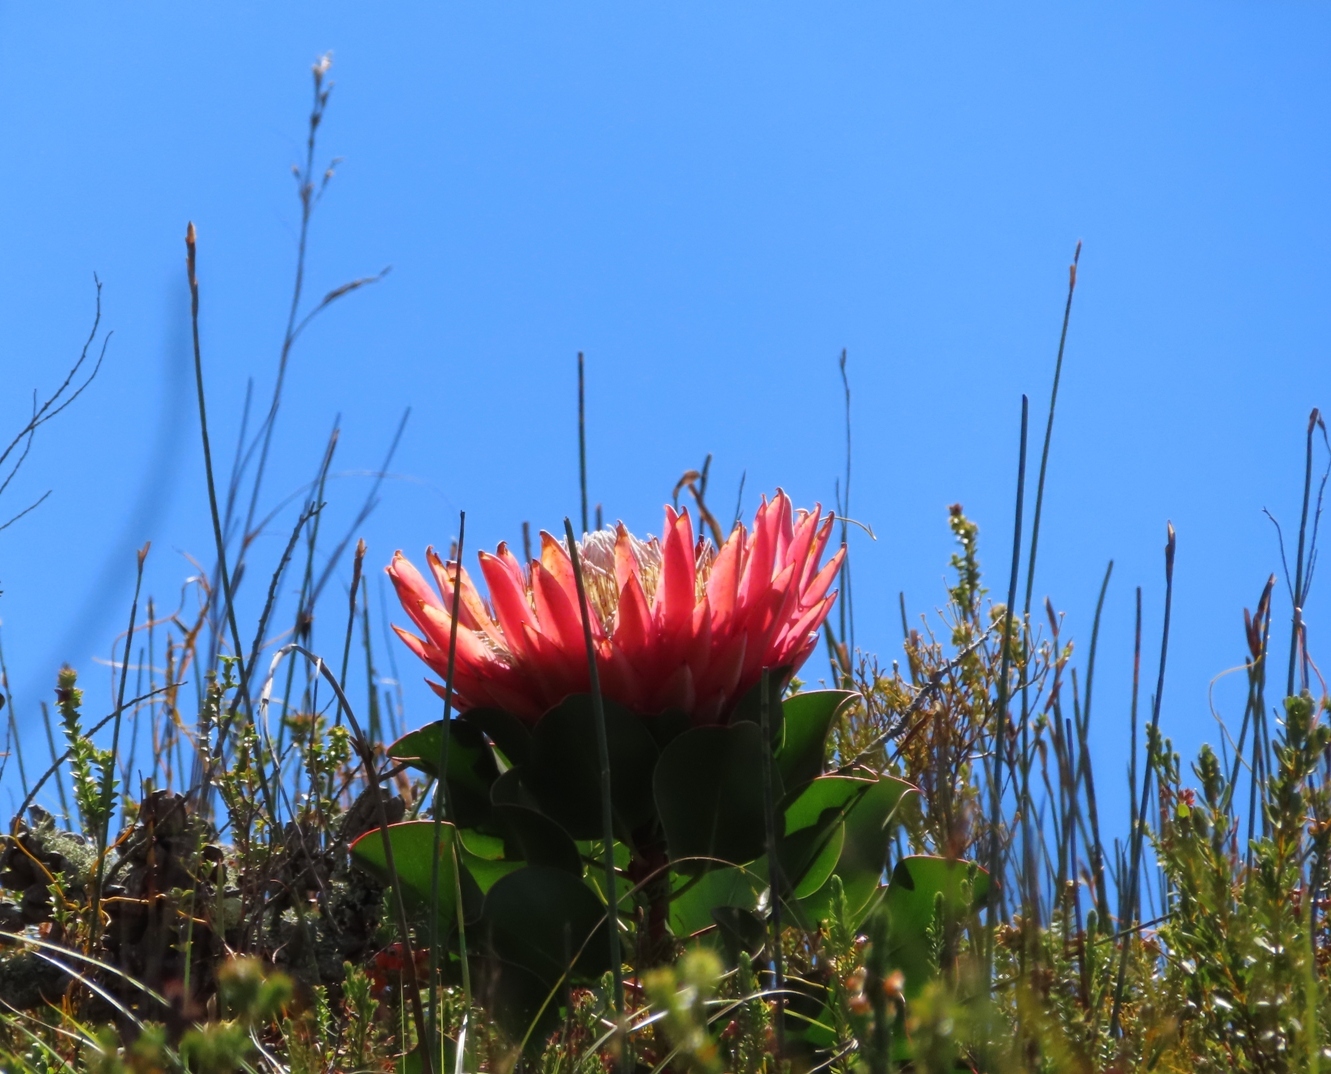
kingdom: Plantae
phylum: Tracheophyta
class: Magnoliopsida
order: Proteales
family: Proteaceae
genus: Protea
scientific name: Protea cynaroides
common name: King protea
